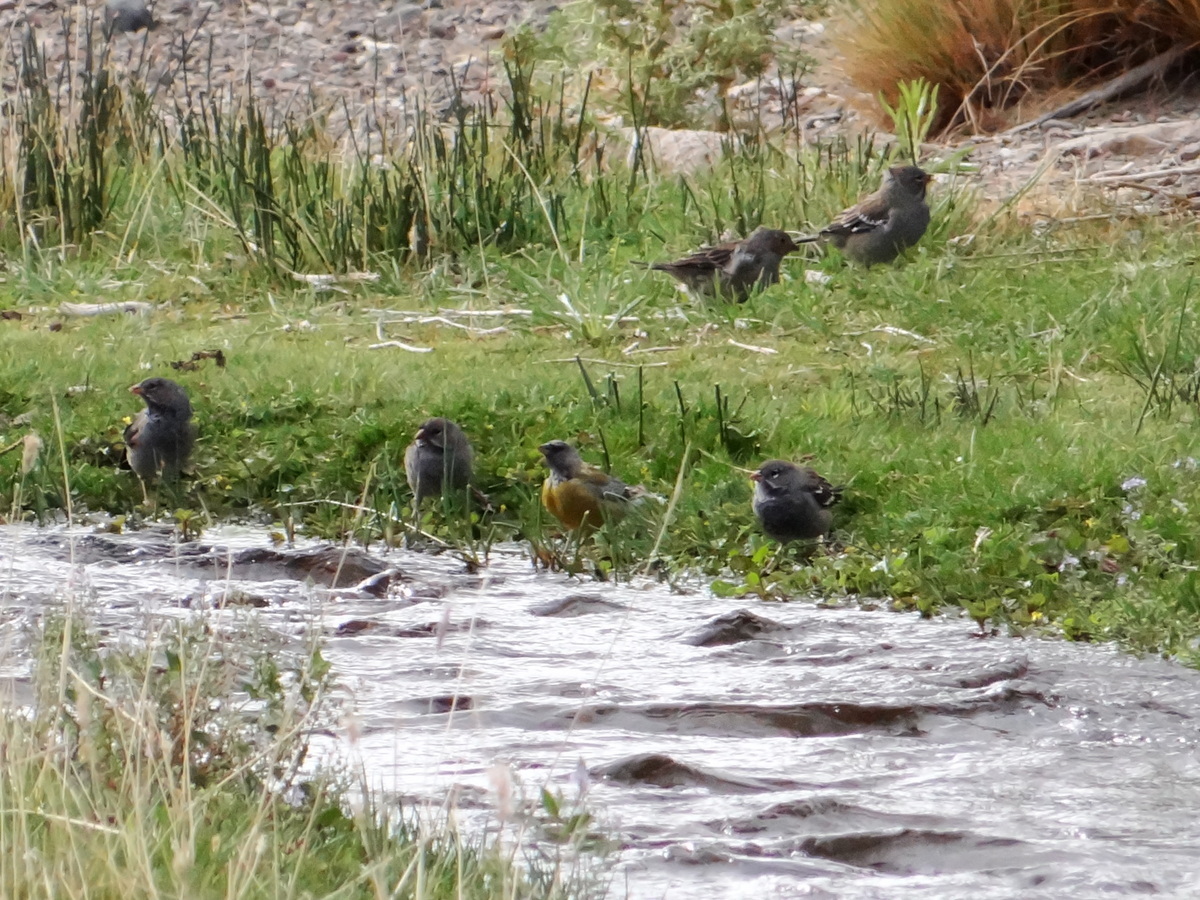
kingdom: Animalia
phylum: Chordata
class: Aves
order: Passeriformes
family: Thraupidae
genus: Rhopospina
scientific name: Rhopospina fruticeti
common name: Mourning sierra finch
